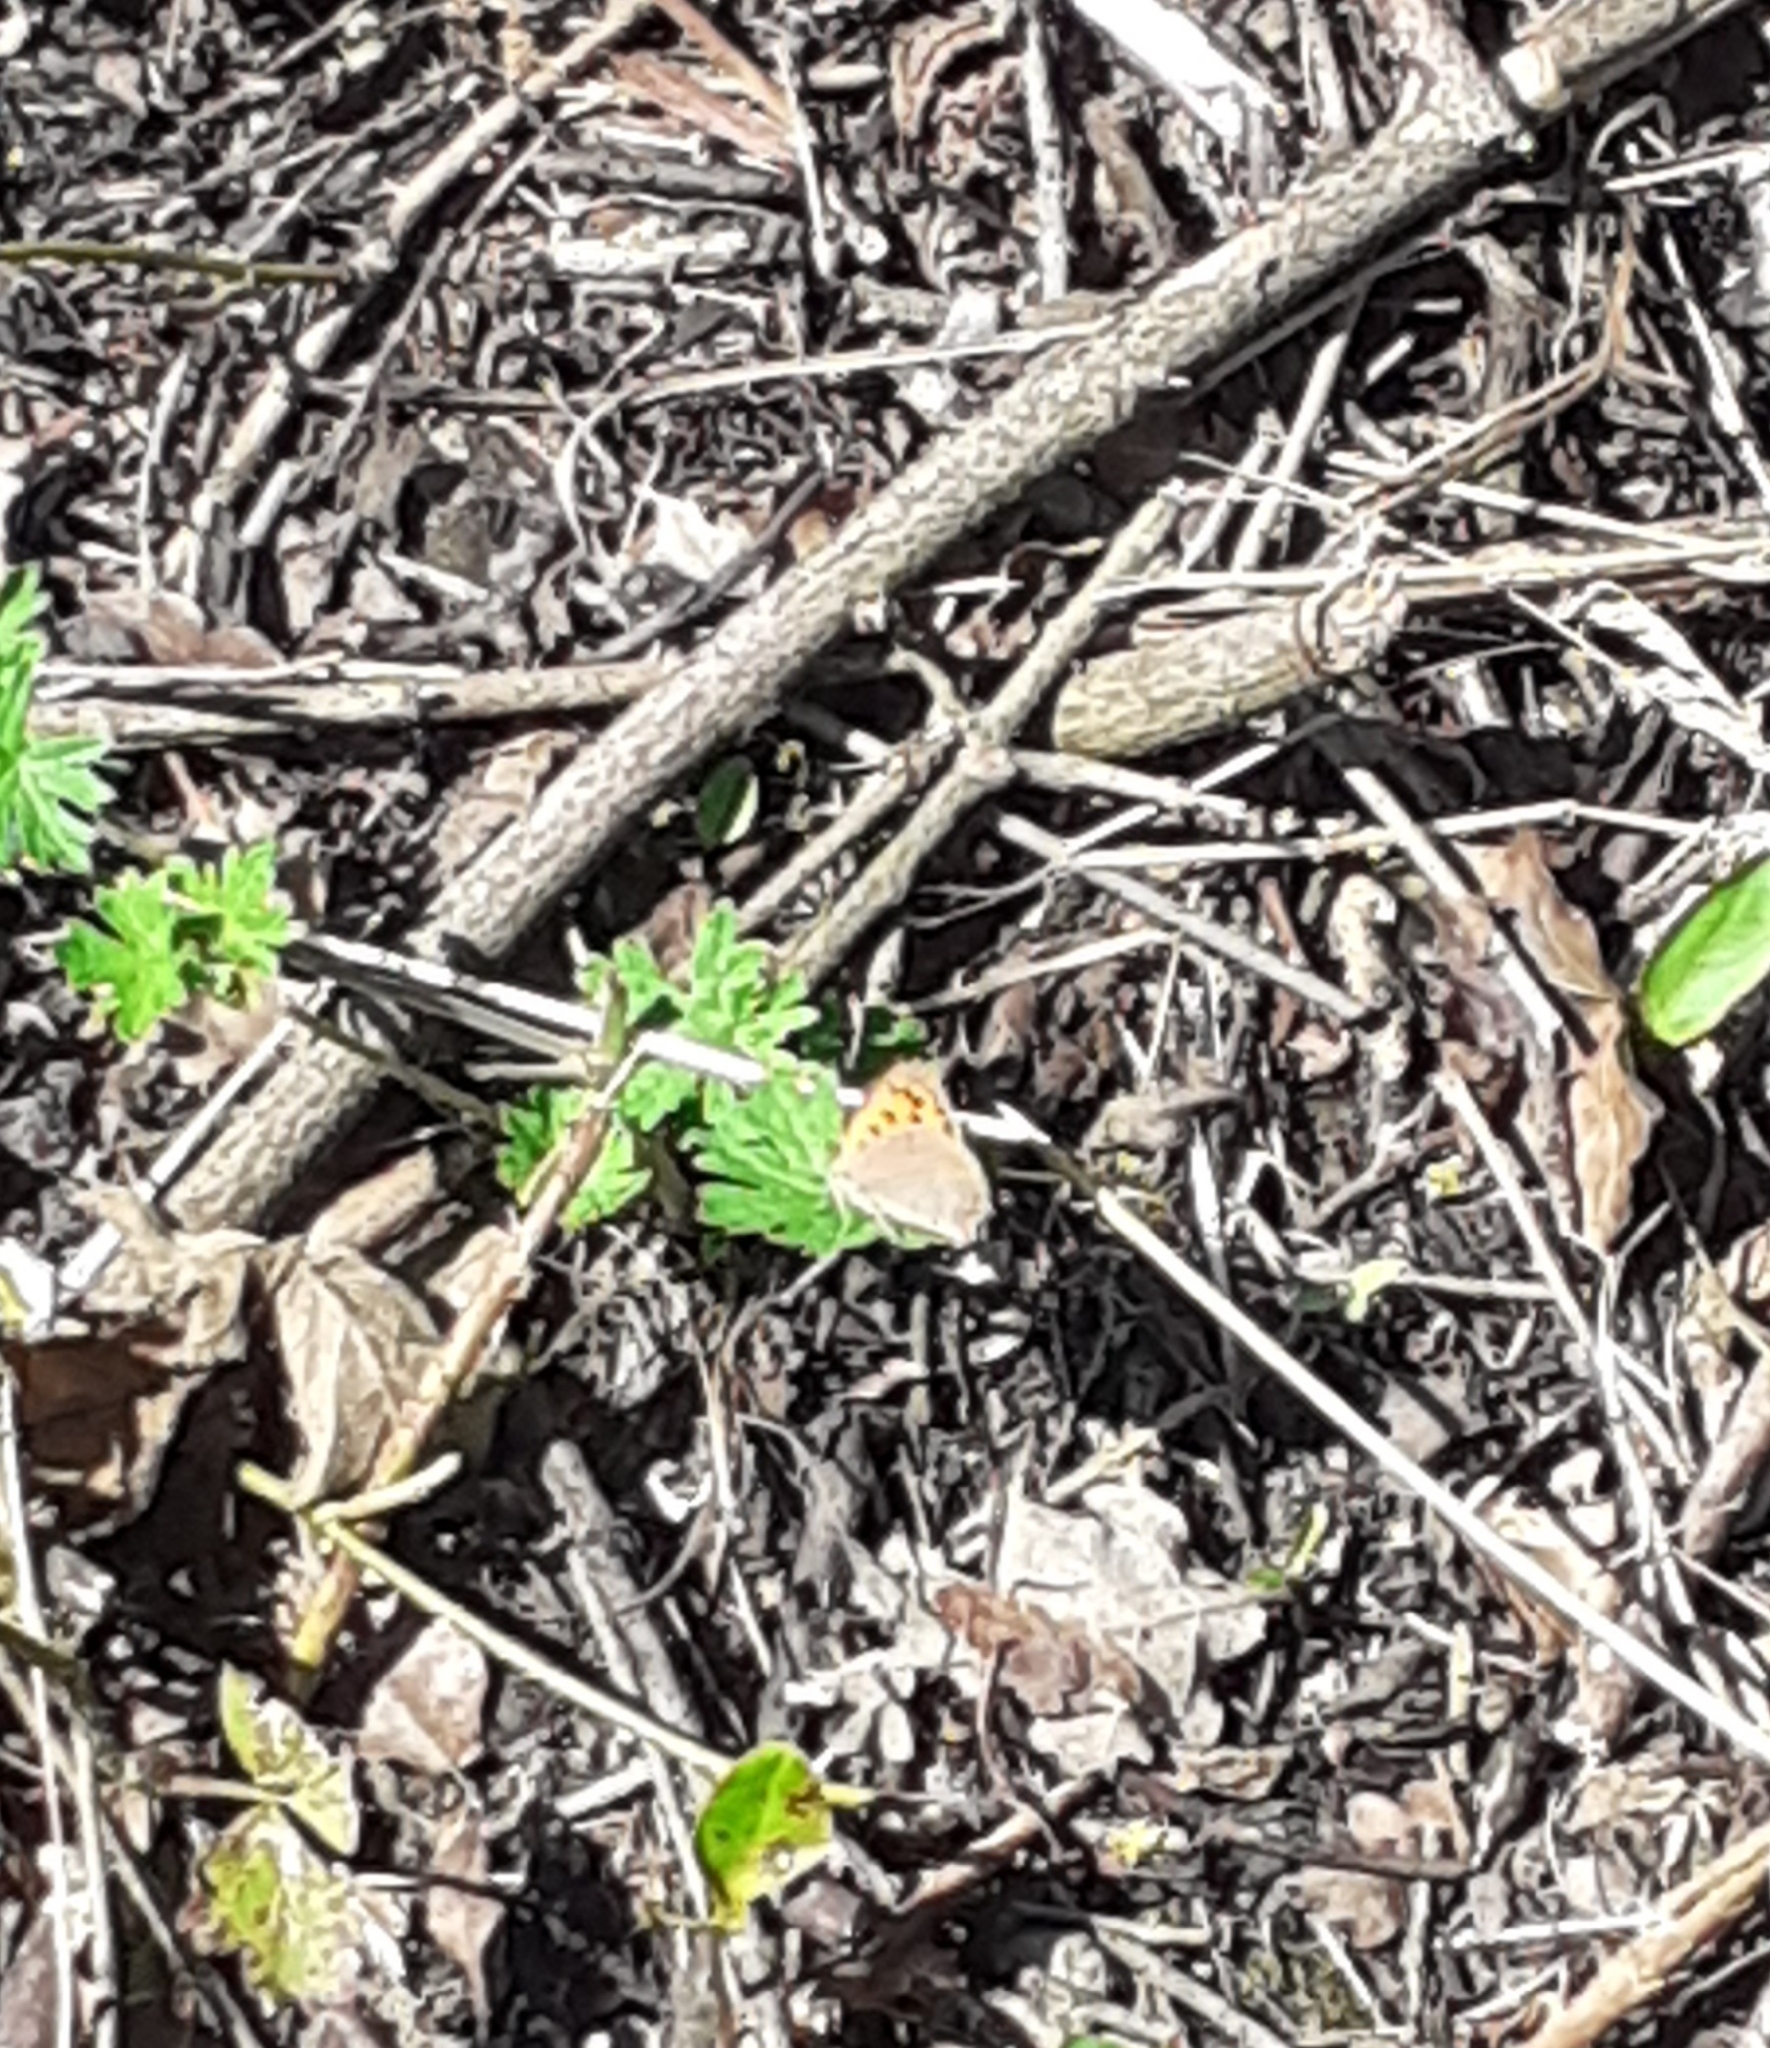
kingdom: Animalia
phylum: Arthropoda
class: Insecta
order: Lepidoptera
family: Lycaenidae
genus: Lycaena
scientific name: Lycaena phlaeas
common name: Small copper
